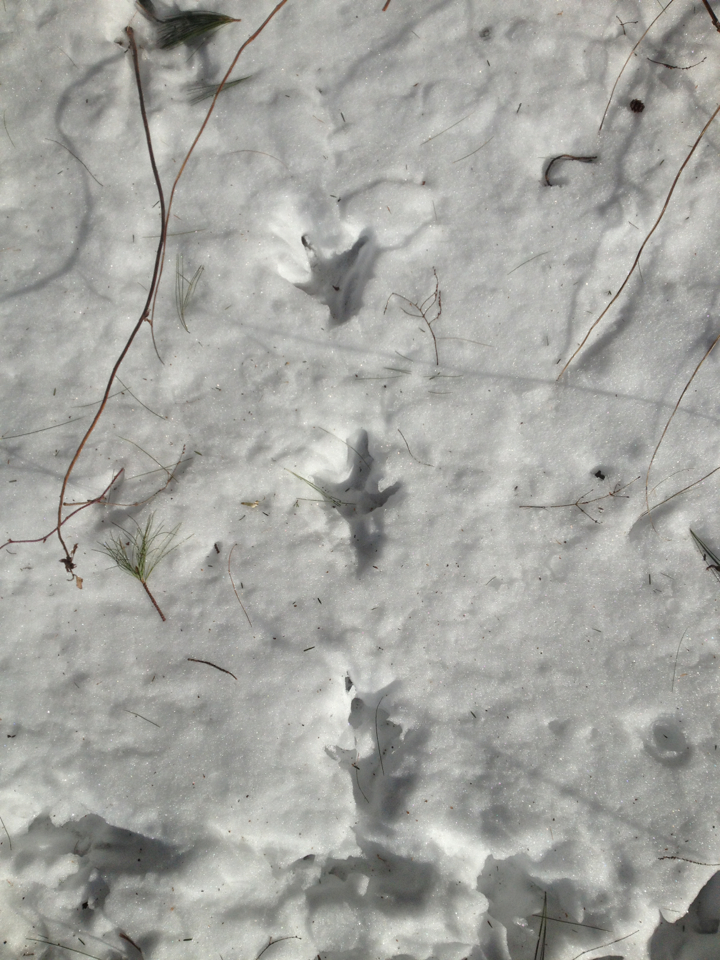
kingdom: Animalia
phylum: Chordata
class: Aves
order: Galliformes
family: Phasianidae
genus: Meleagris
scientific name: Meleagris gallopavo
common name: Wild turkey
